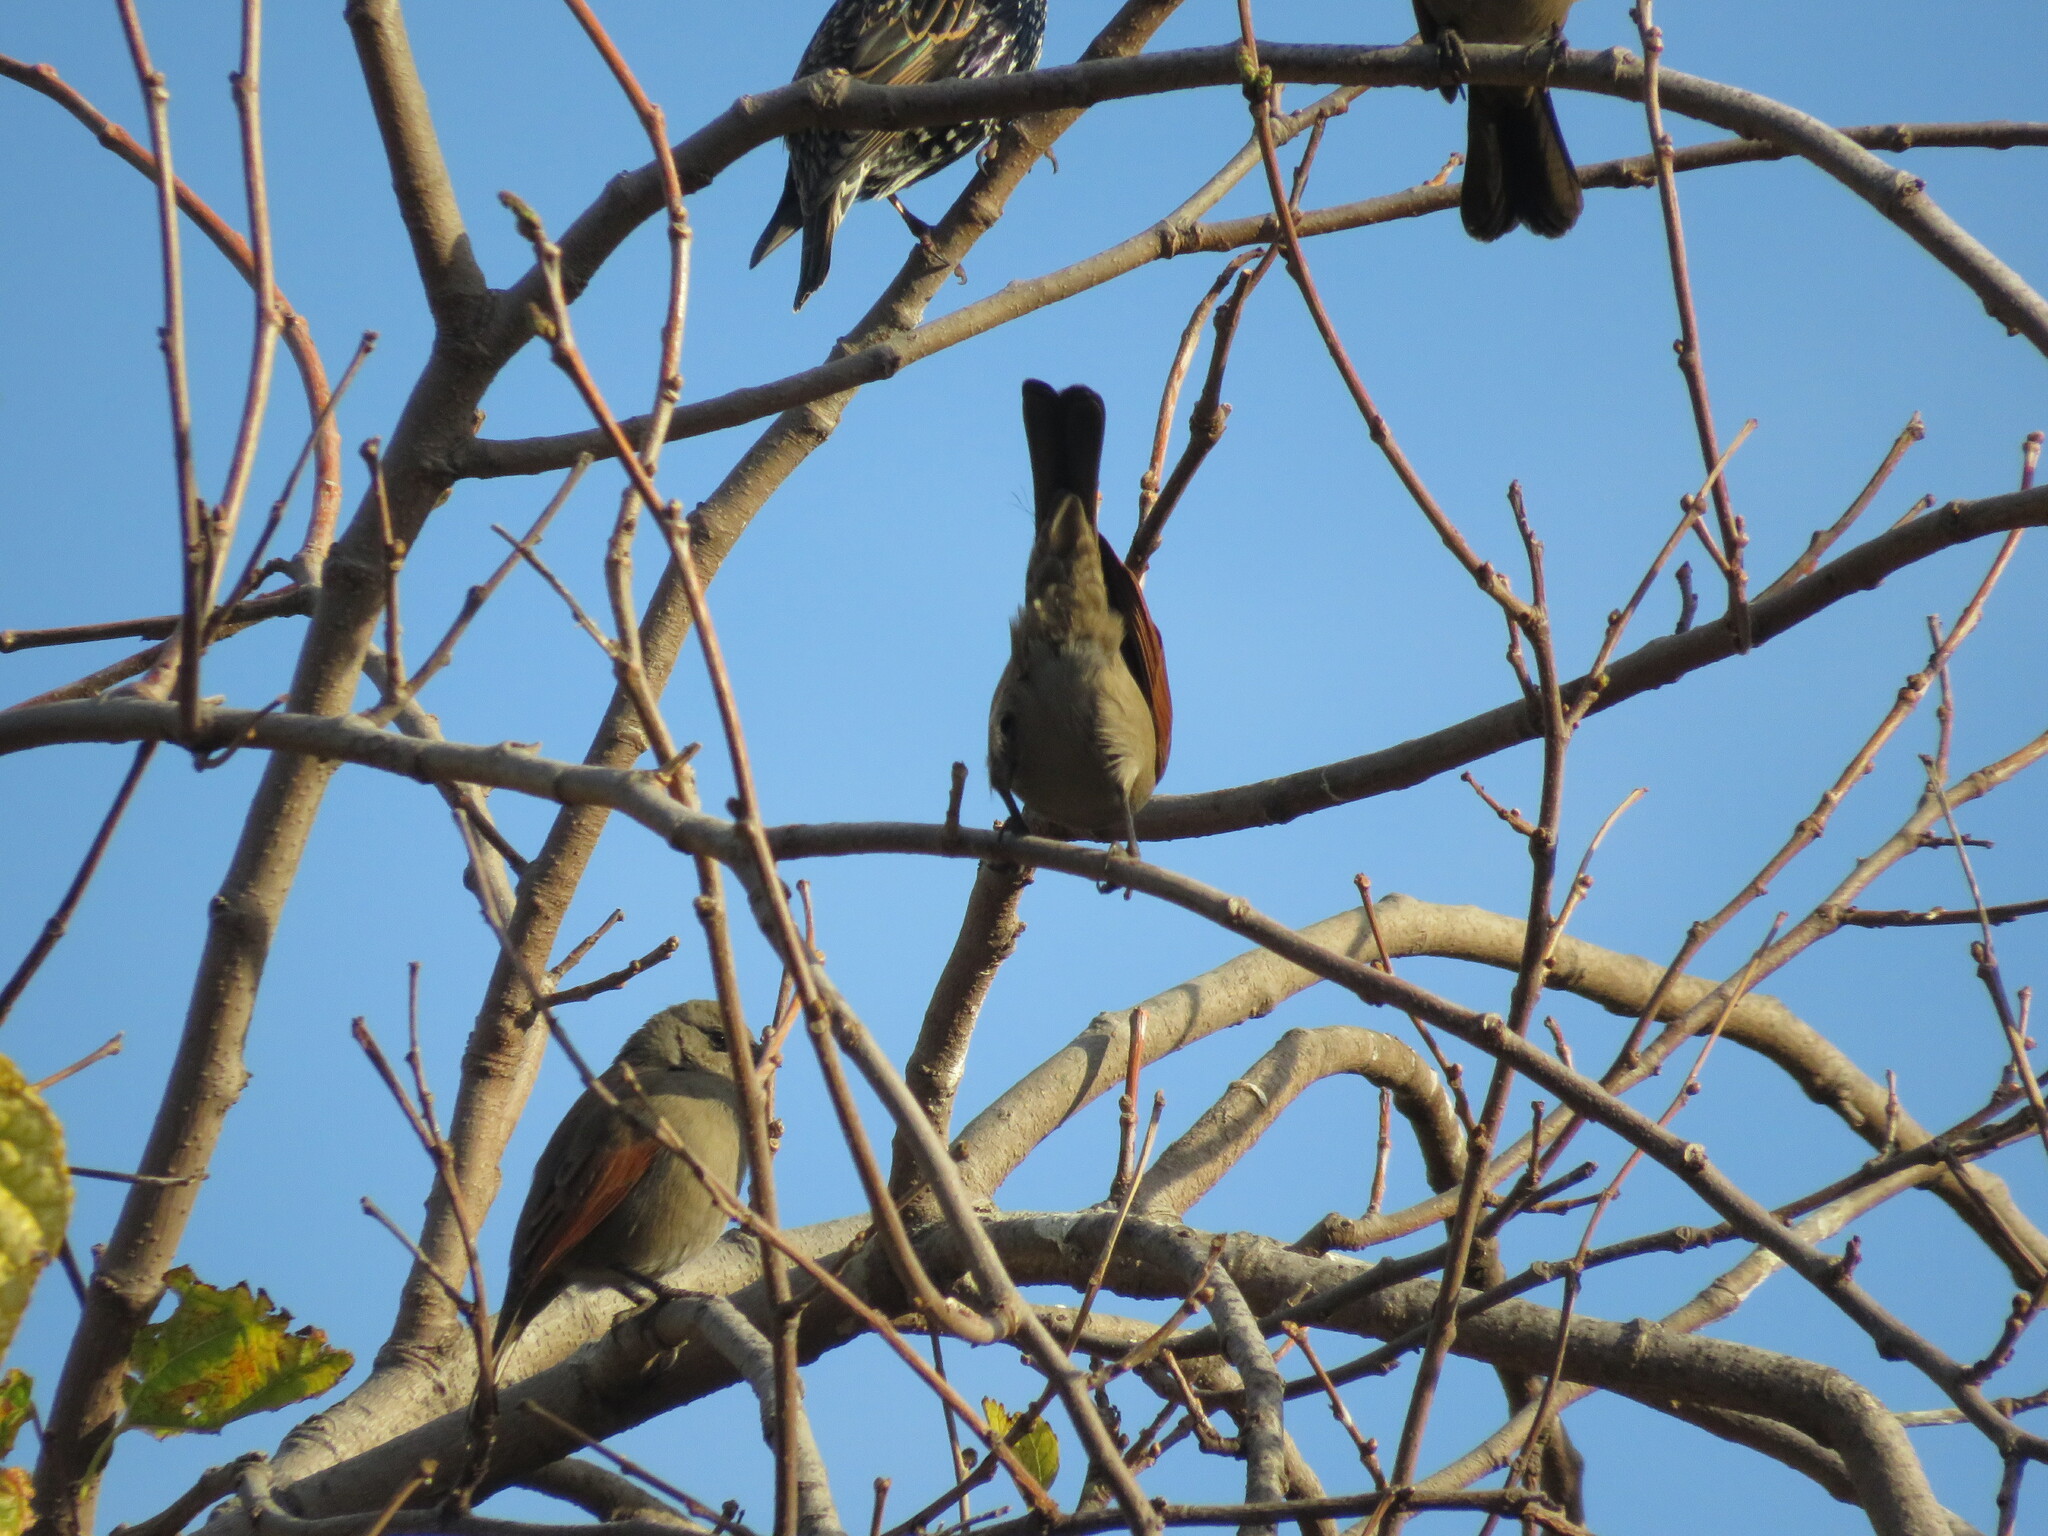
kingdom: Animalia
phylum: Chordata
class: Aves
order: Passeriformes
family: Icteridae
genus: Agelaioides
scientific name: Agelaioides badius
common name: Baywing
